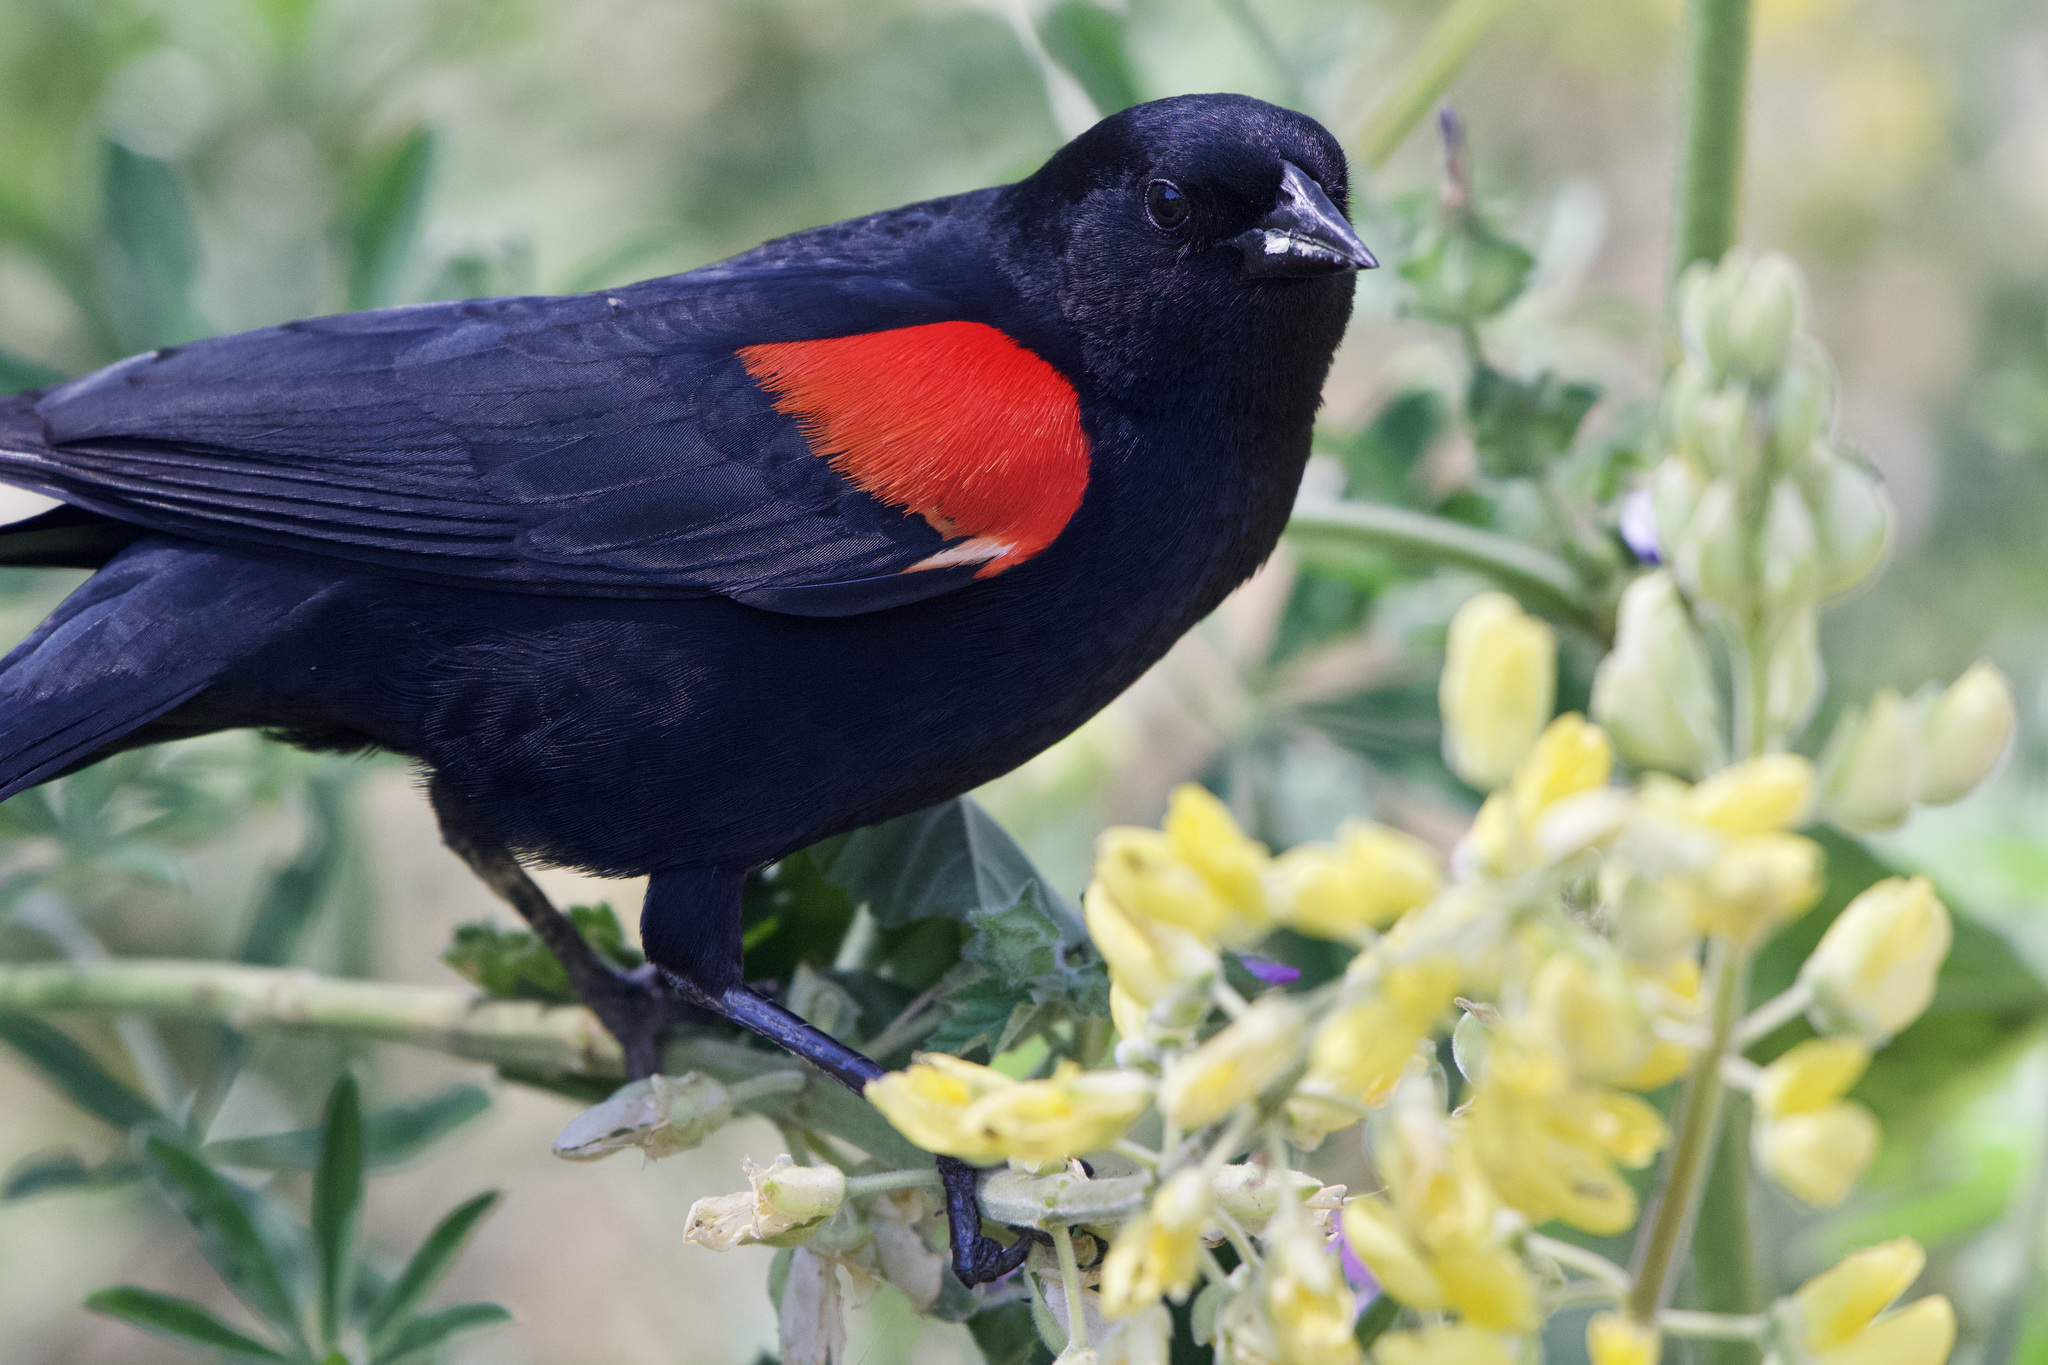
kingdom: Animalia
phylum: Chordata
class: Aves
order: Passeriformes
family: Icteridae
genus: Agelaius
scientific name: Agelaius phoeniceus
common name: Red-winged blackbird
